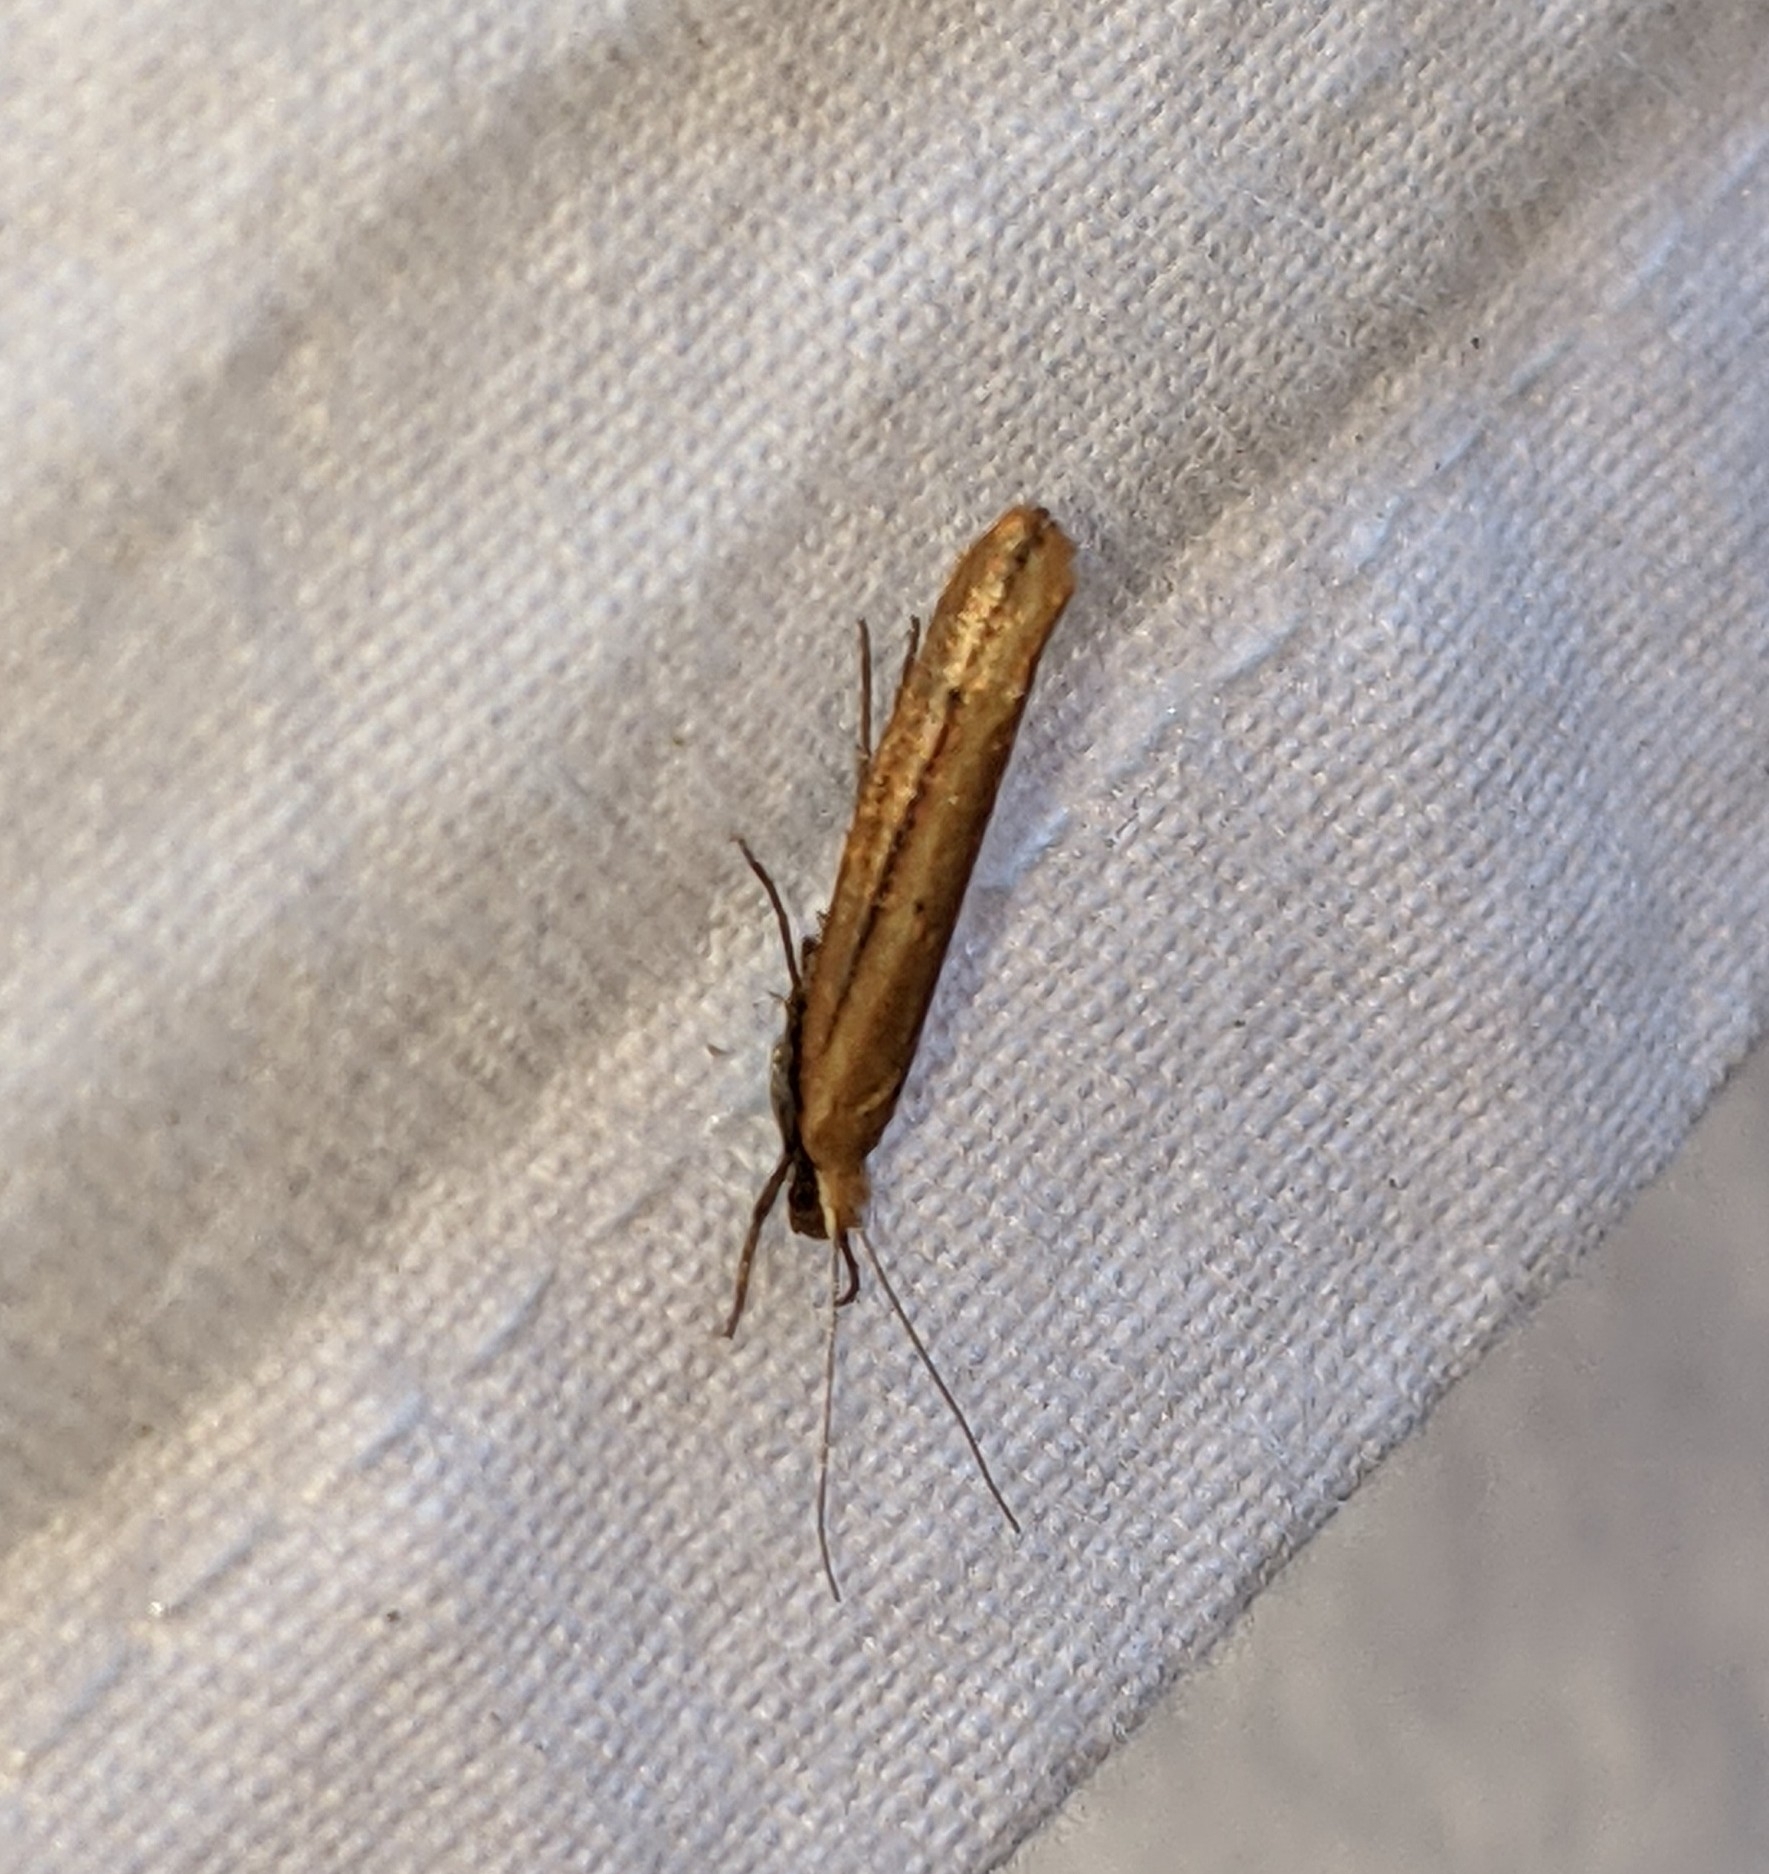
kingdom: Animalia
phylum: Arthropoda
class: Insecta
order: Lepidoptera
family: Ypsolophidae
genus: Ypsolopha
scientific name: Ypsolopha
